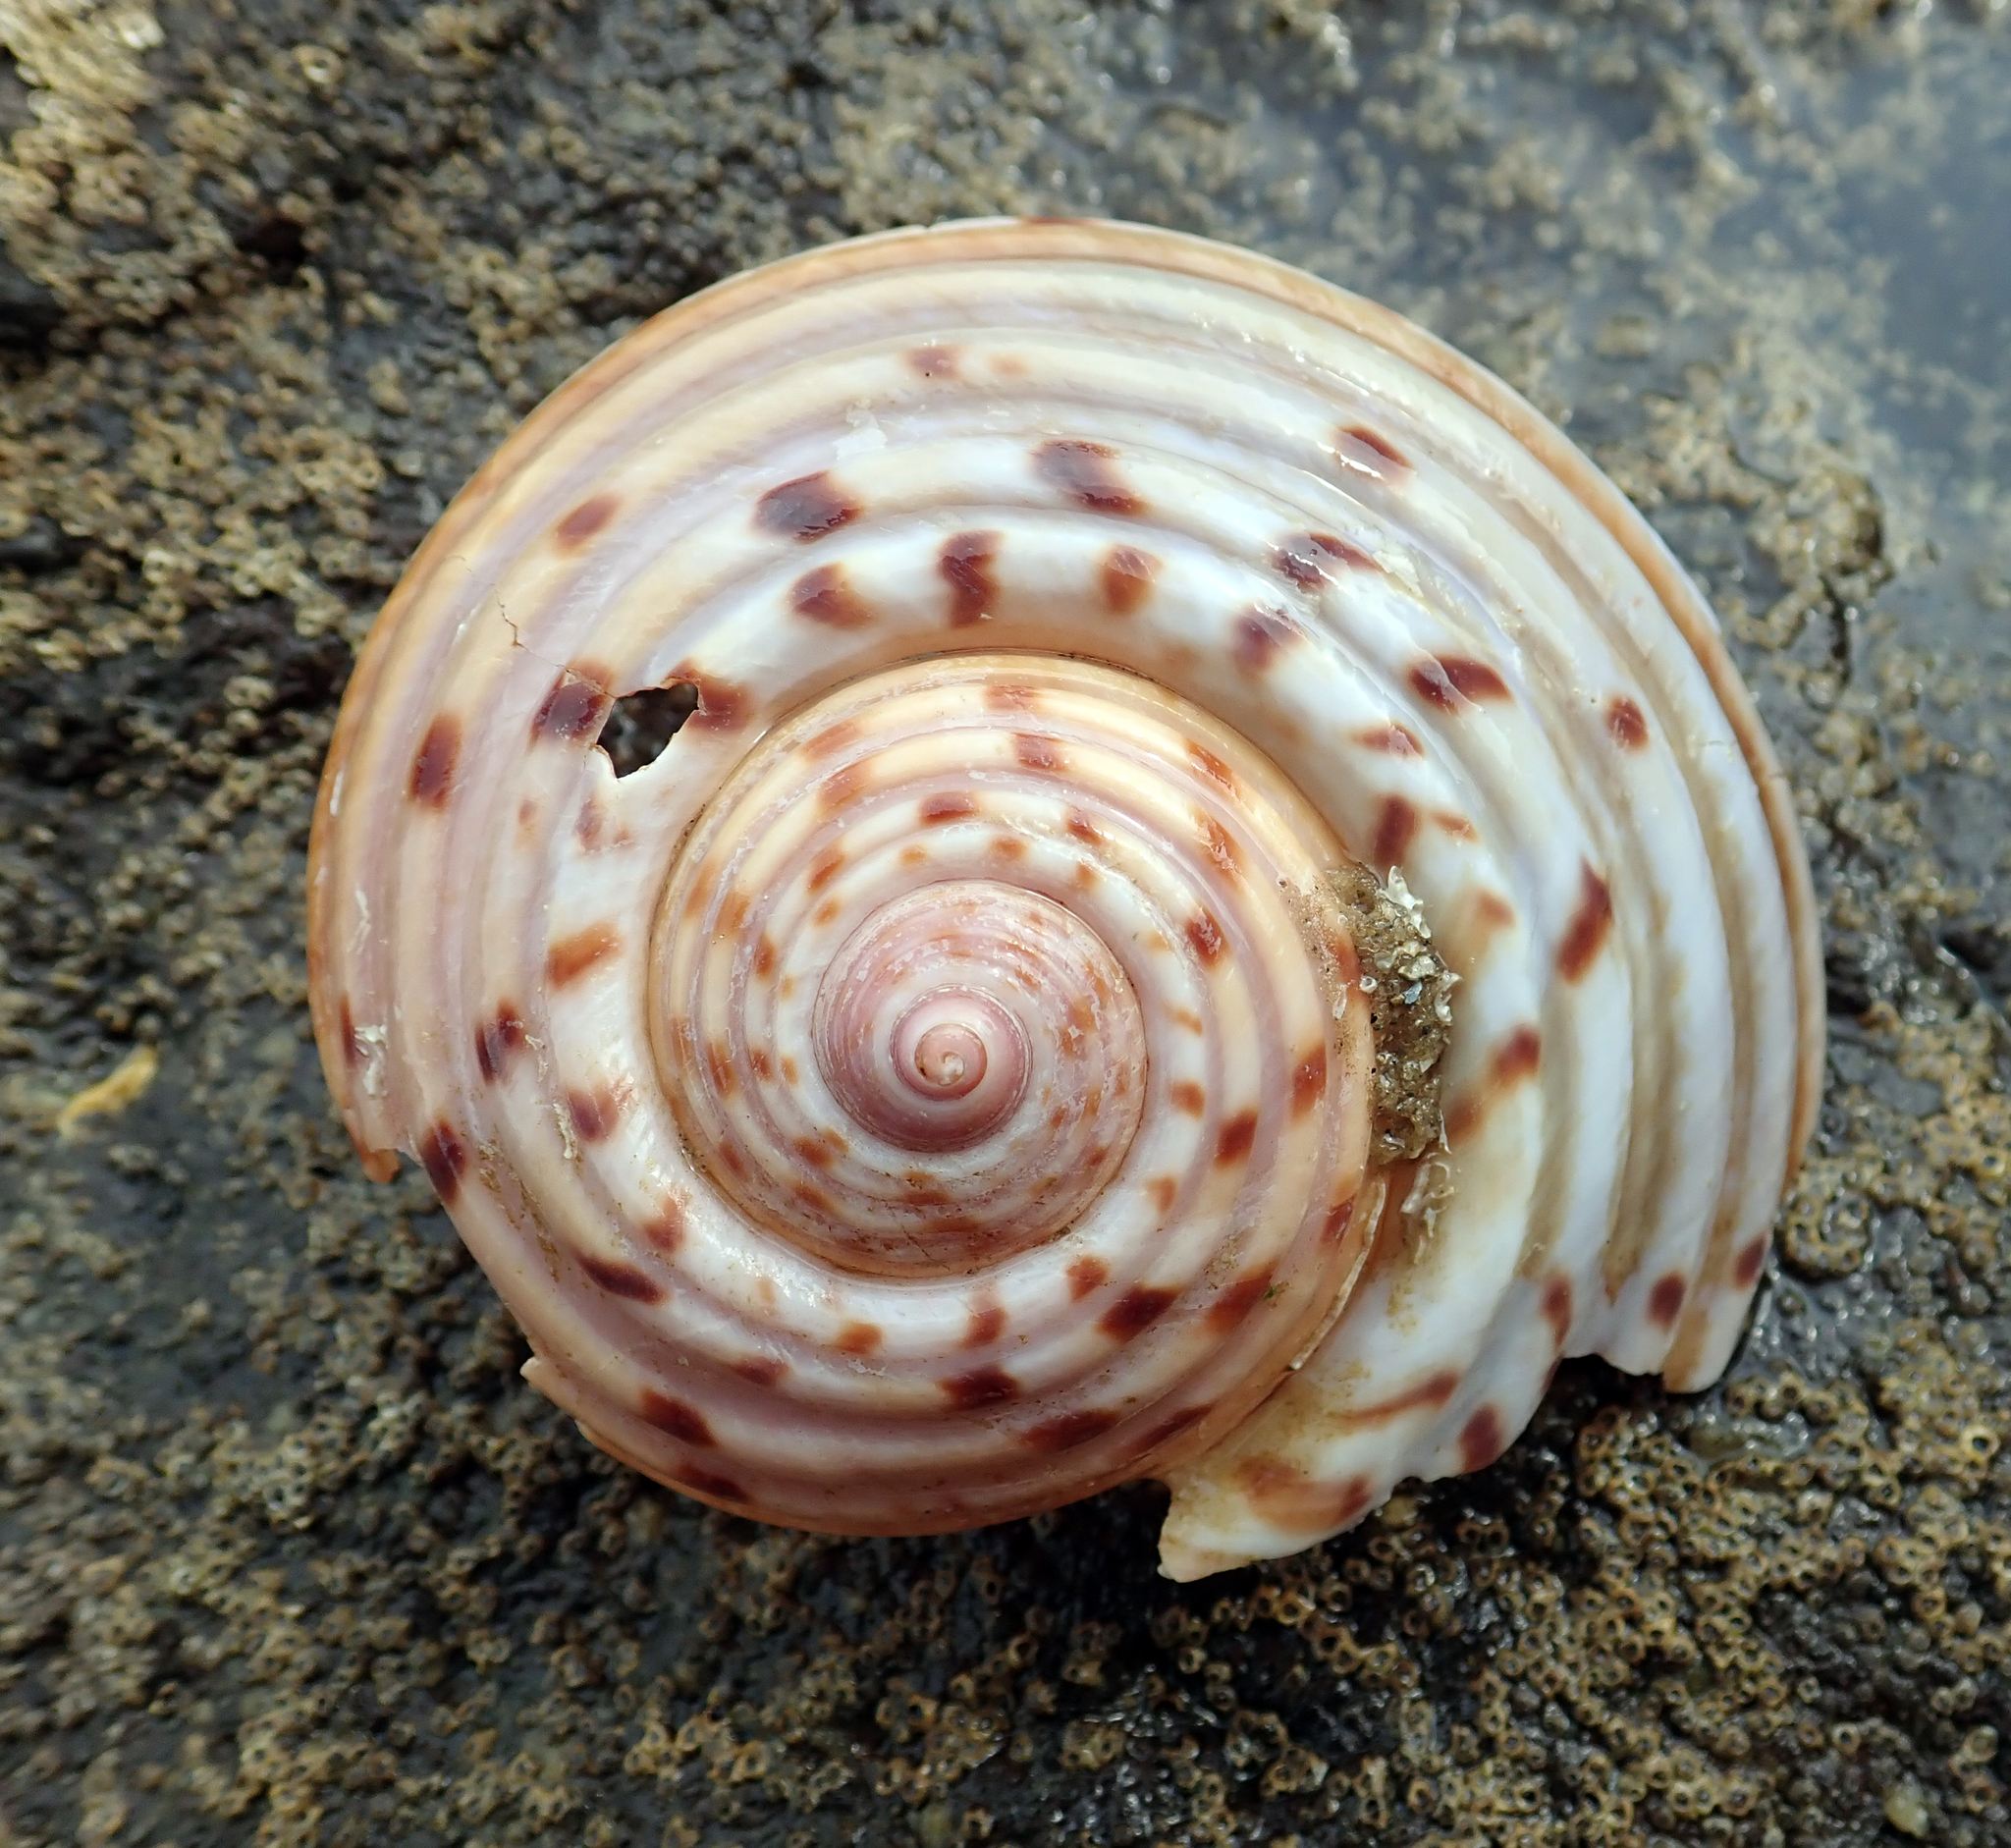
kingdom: Animalia
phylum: Mollusca
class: Gastropoda
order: Littorinimorpha
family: Tonnidae
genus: Tonna
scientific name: Tonna tankervillii
